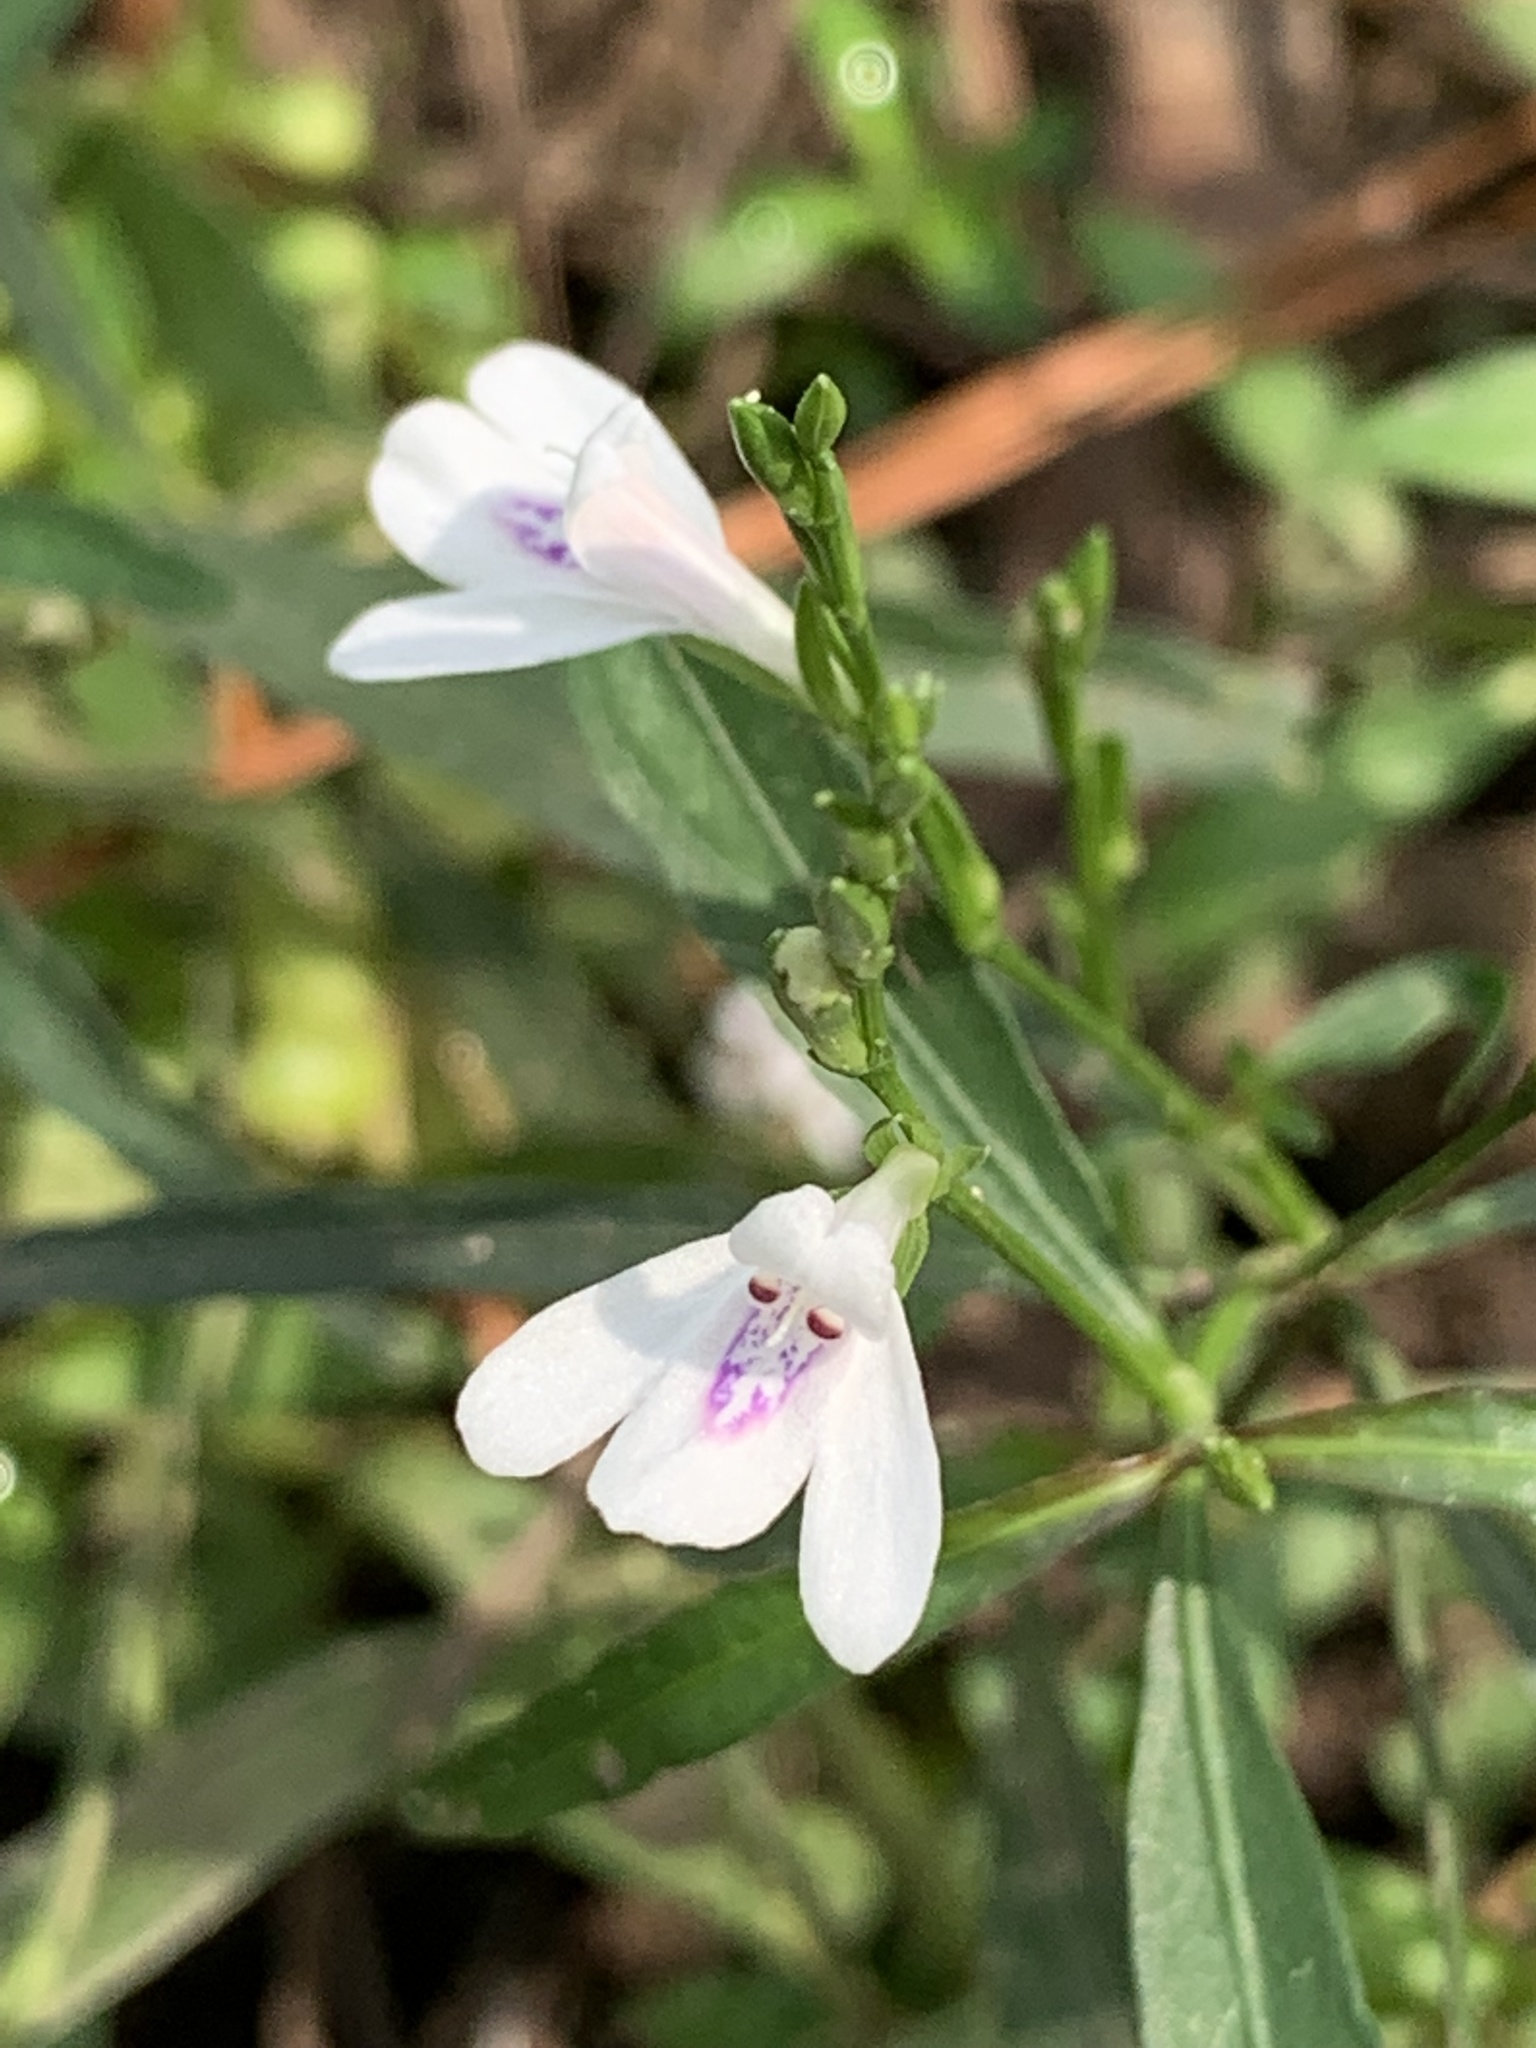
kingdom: Plantae
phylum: Tracheophyta
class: Magnoliopsida
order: Lamiales
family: Acanthaceae
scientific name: Acanthaceae
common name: Acanthaceae
